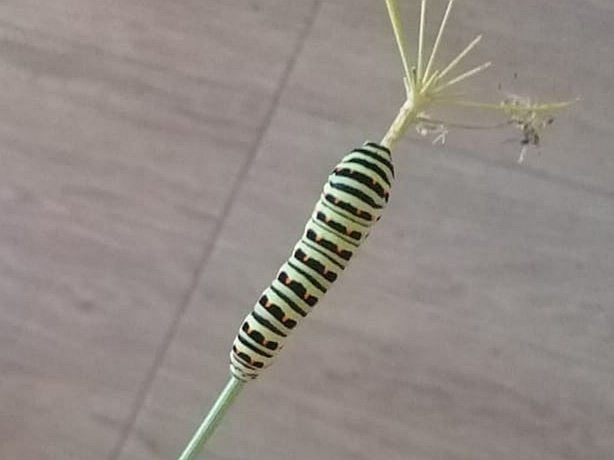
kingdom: Animalia
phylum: Arthropoda
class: Insecta
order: Lepidoptera
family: Papilionidae
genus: Papilio
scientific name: Papilio machaon
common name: Swallowtail
